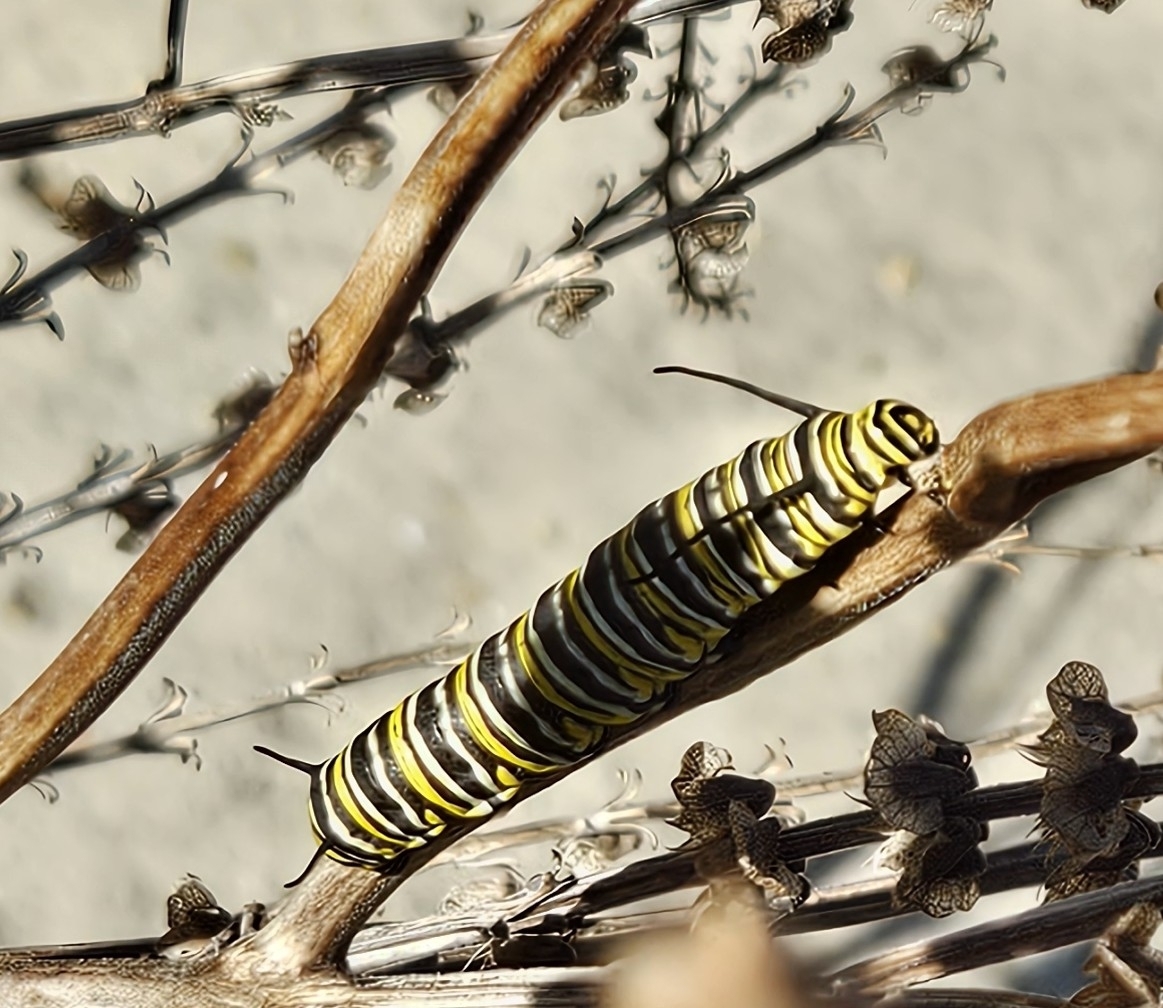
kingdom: Animalia
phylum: Arthropoda
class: Insecta
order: Lepidoptera
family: Nymphalidae
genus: Danaus
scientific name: Danaus plexippus
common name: Monarch
